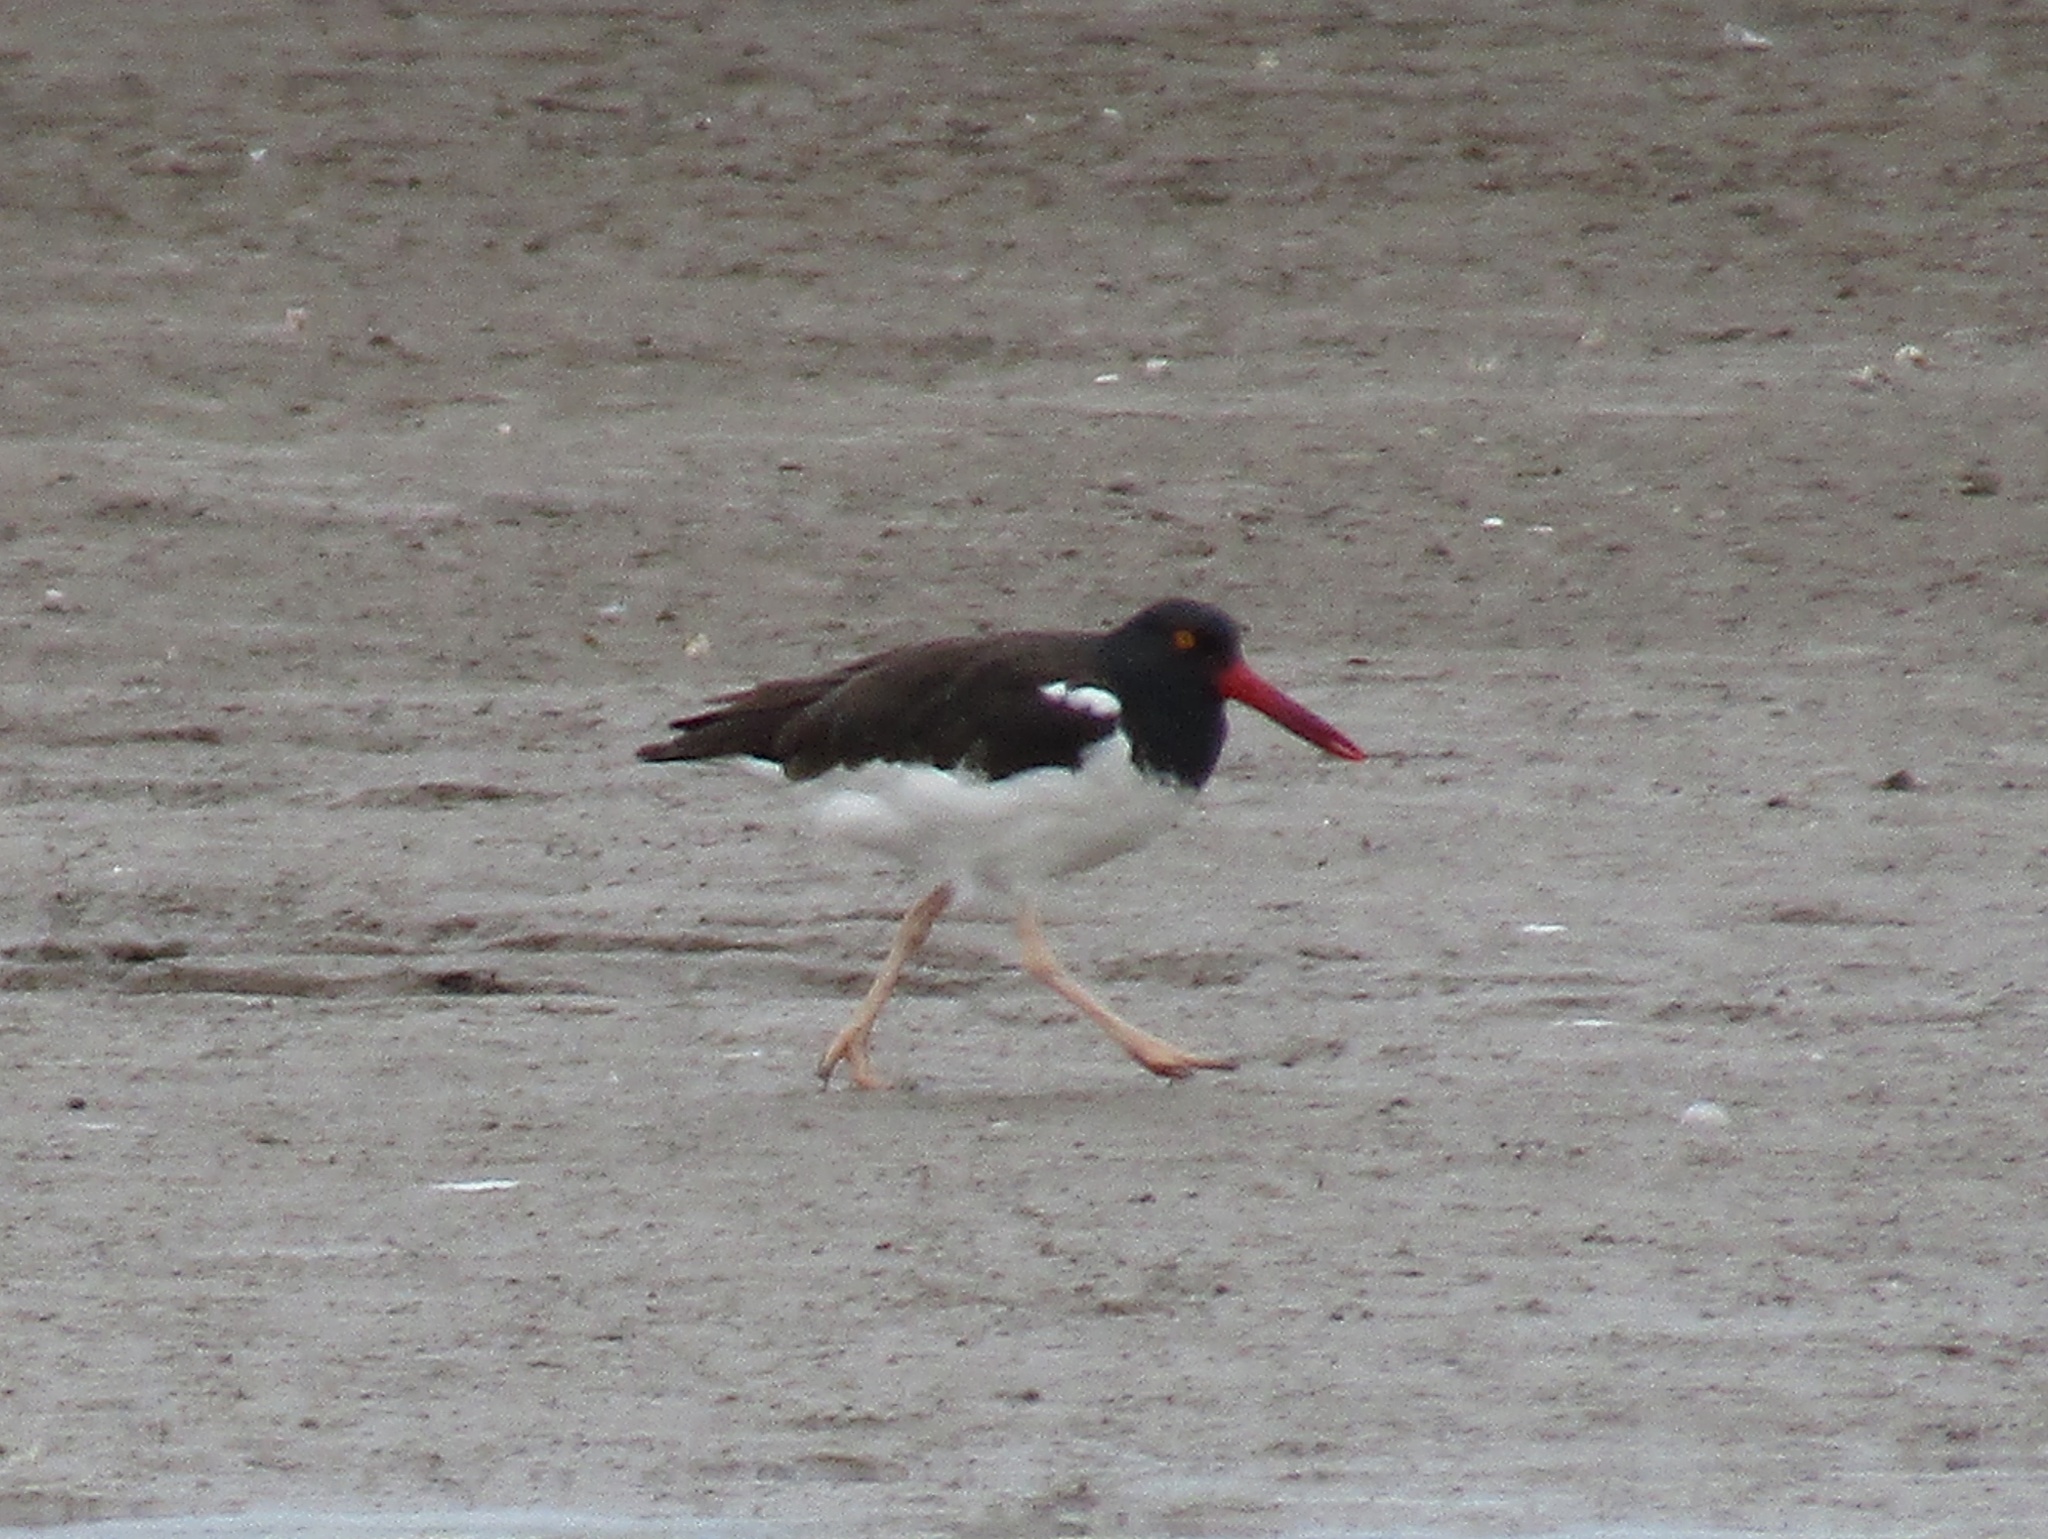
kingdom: Animalia
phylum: Chordata
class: Aves
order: Charadriiformes
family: Haematopodidae
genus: Haematopus
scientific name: Haematopus palliatus
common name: American oystercatcher
